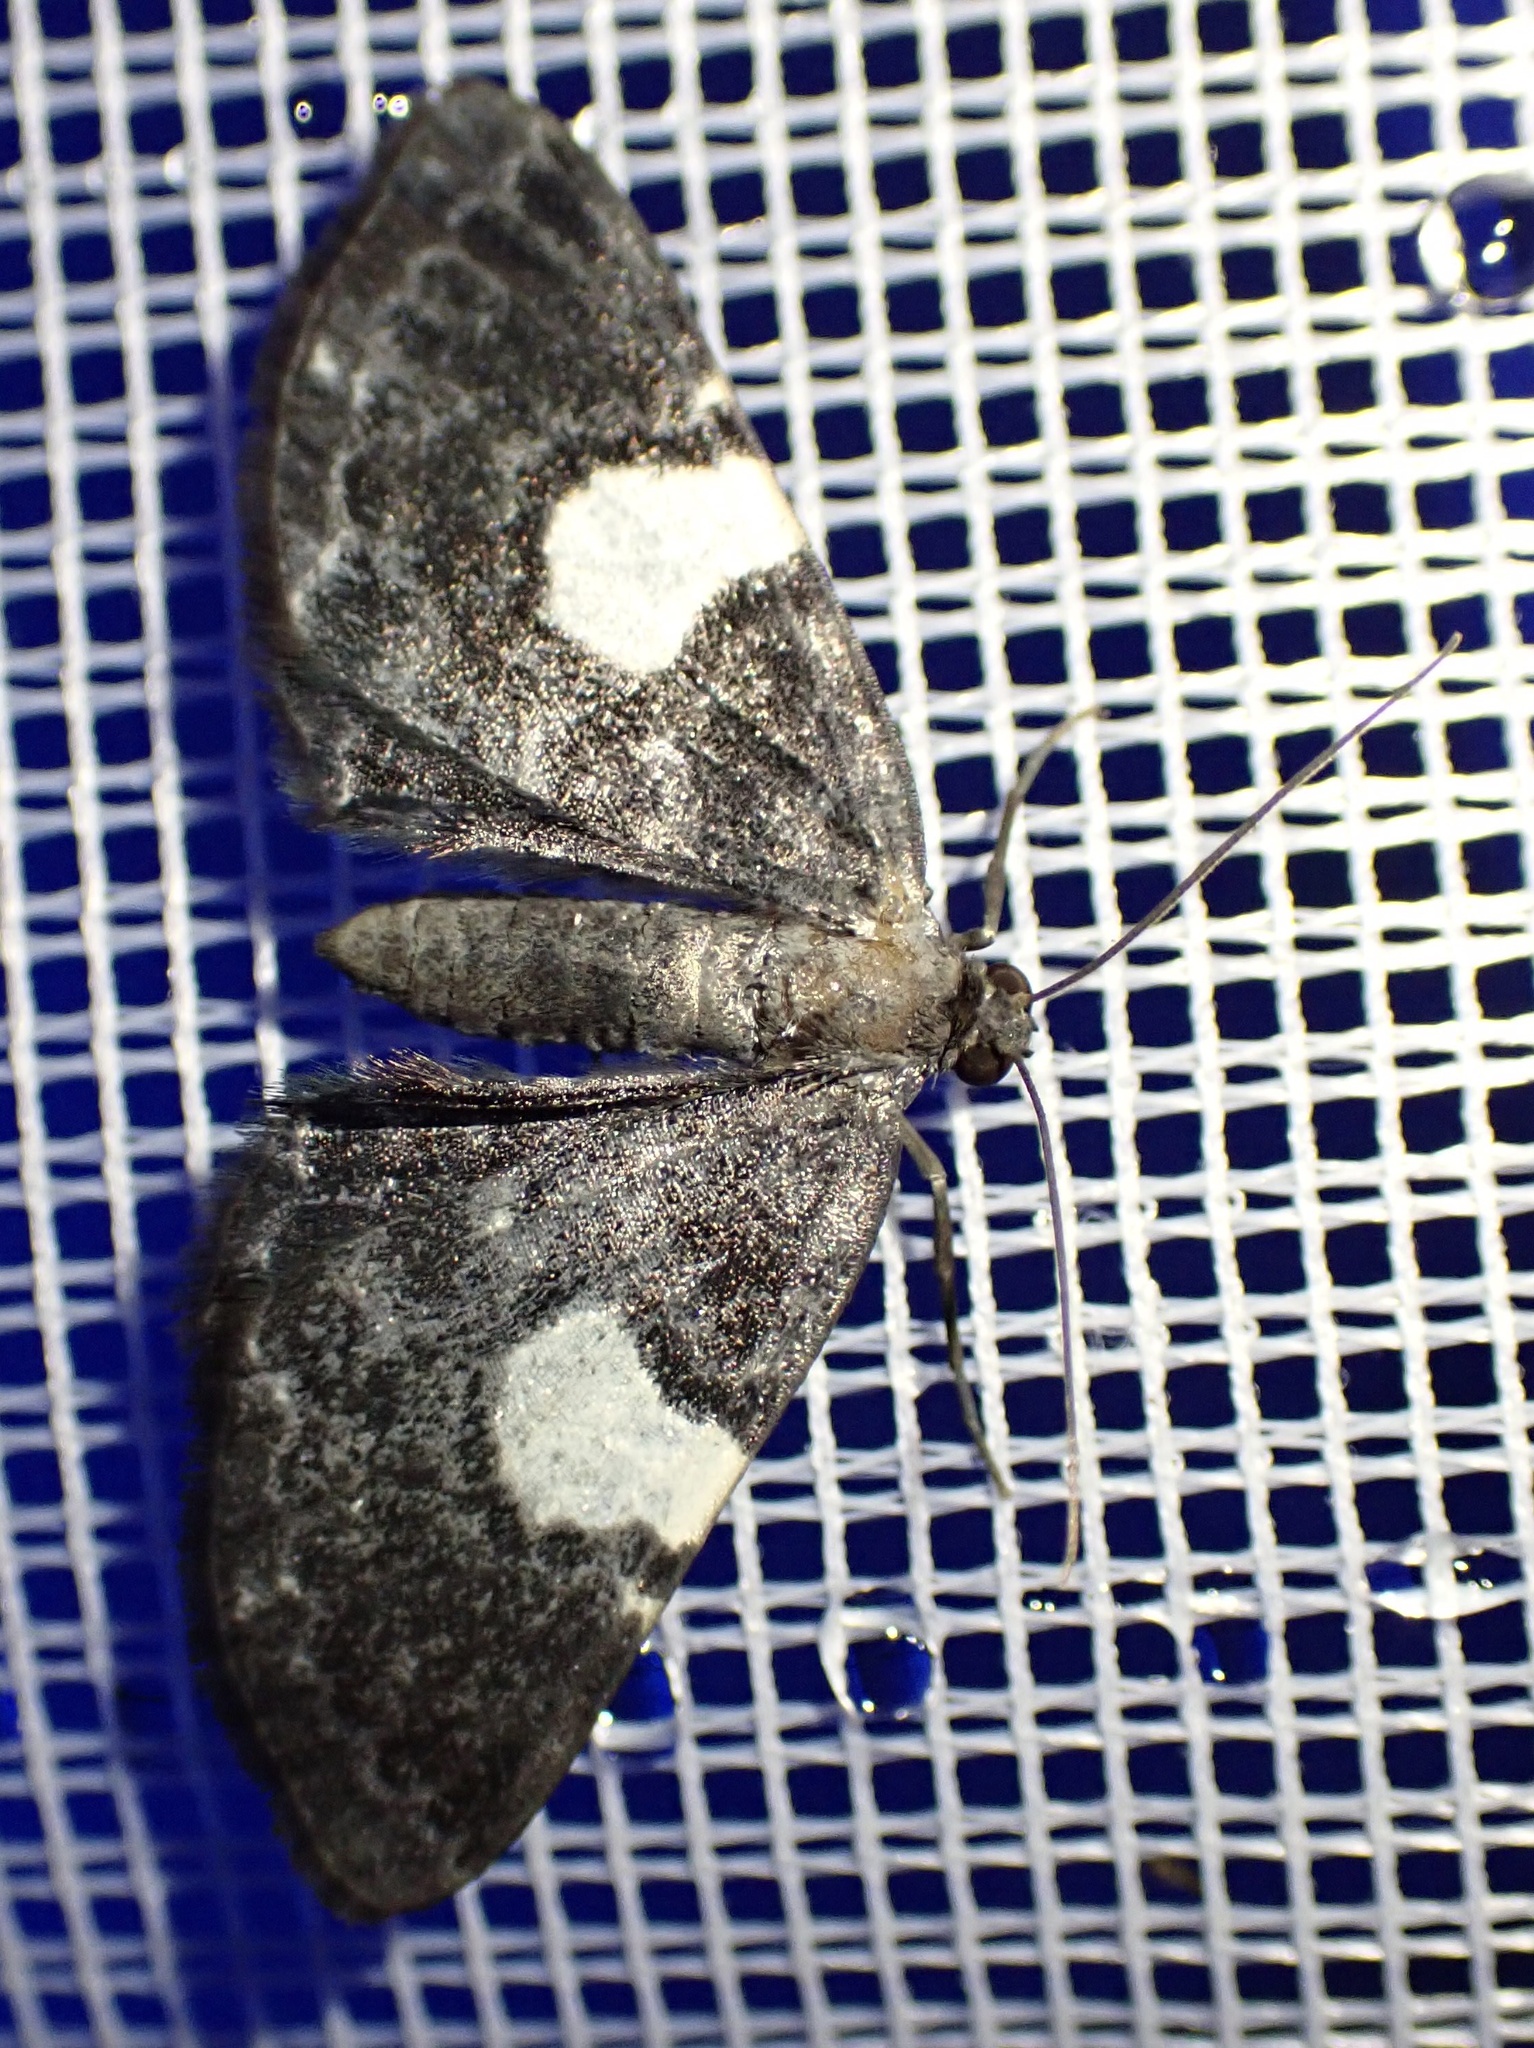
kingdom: Animalia
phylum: Arthropoda
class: Insecta
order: Lepidoptera
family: Geometridae
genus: Craspedosis
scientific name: Craspedosis costimacula
